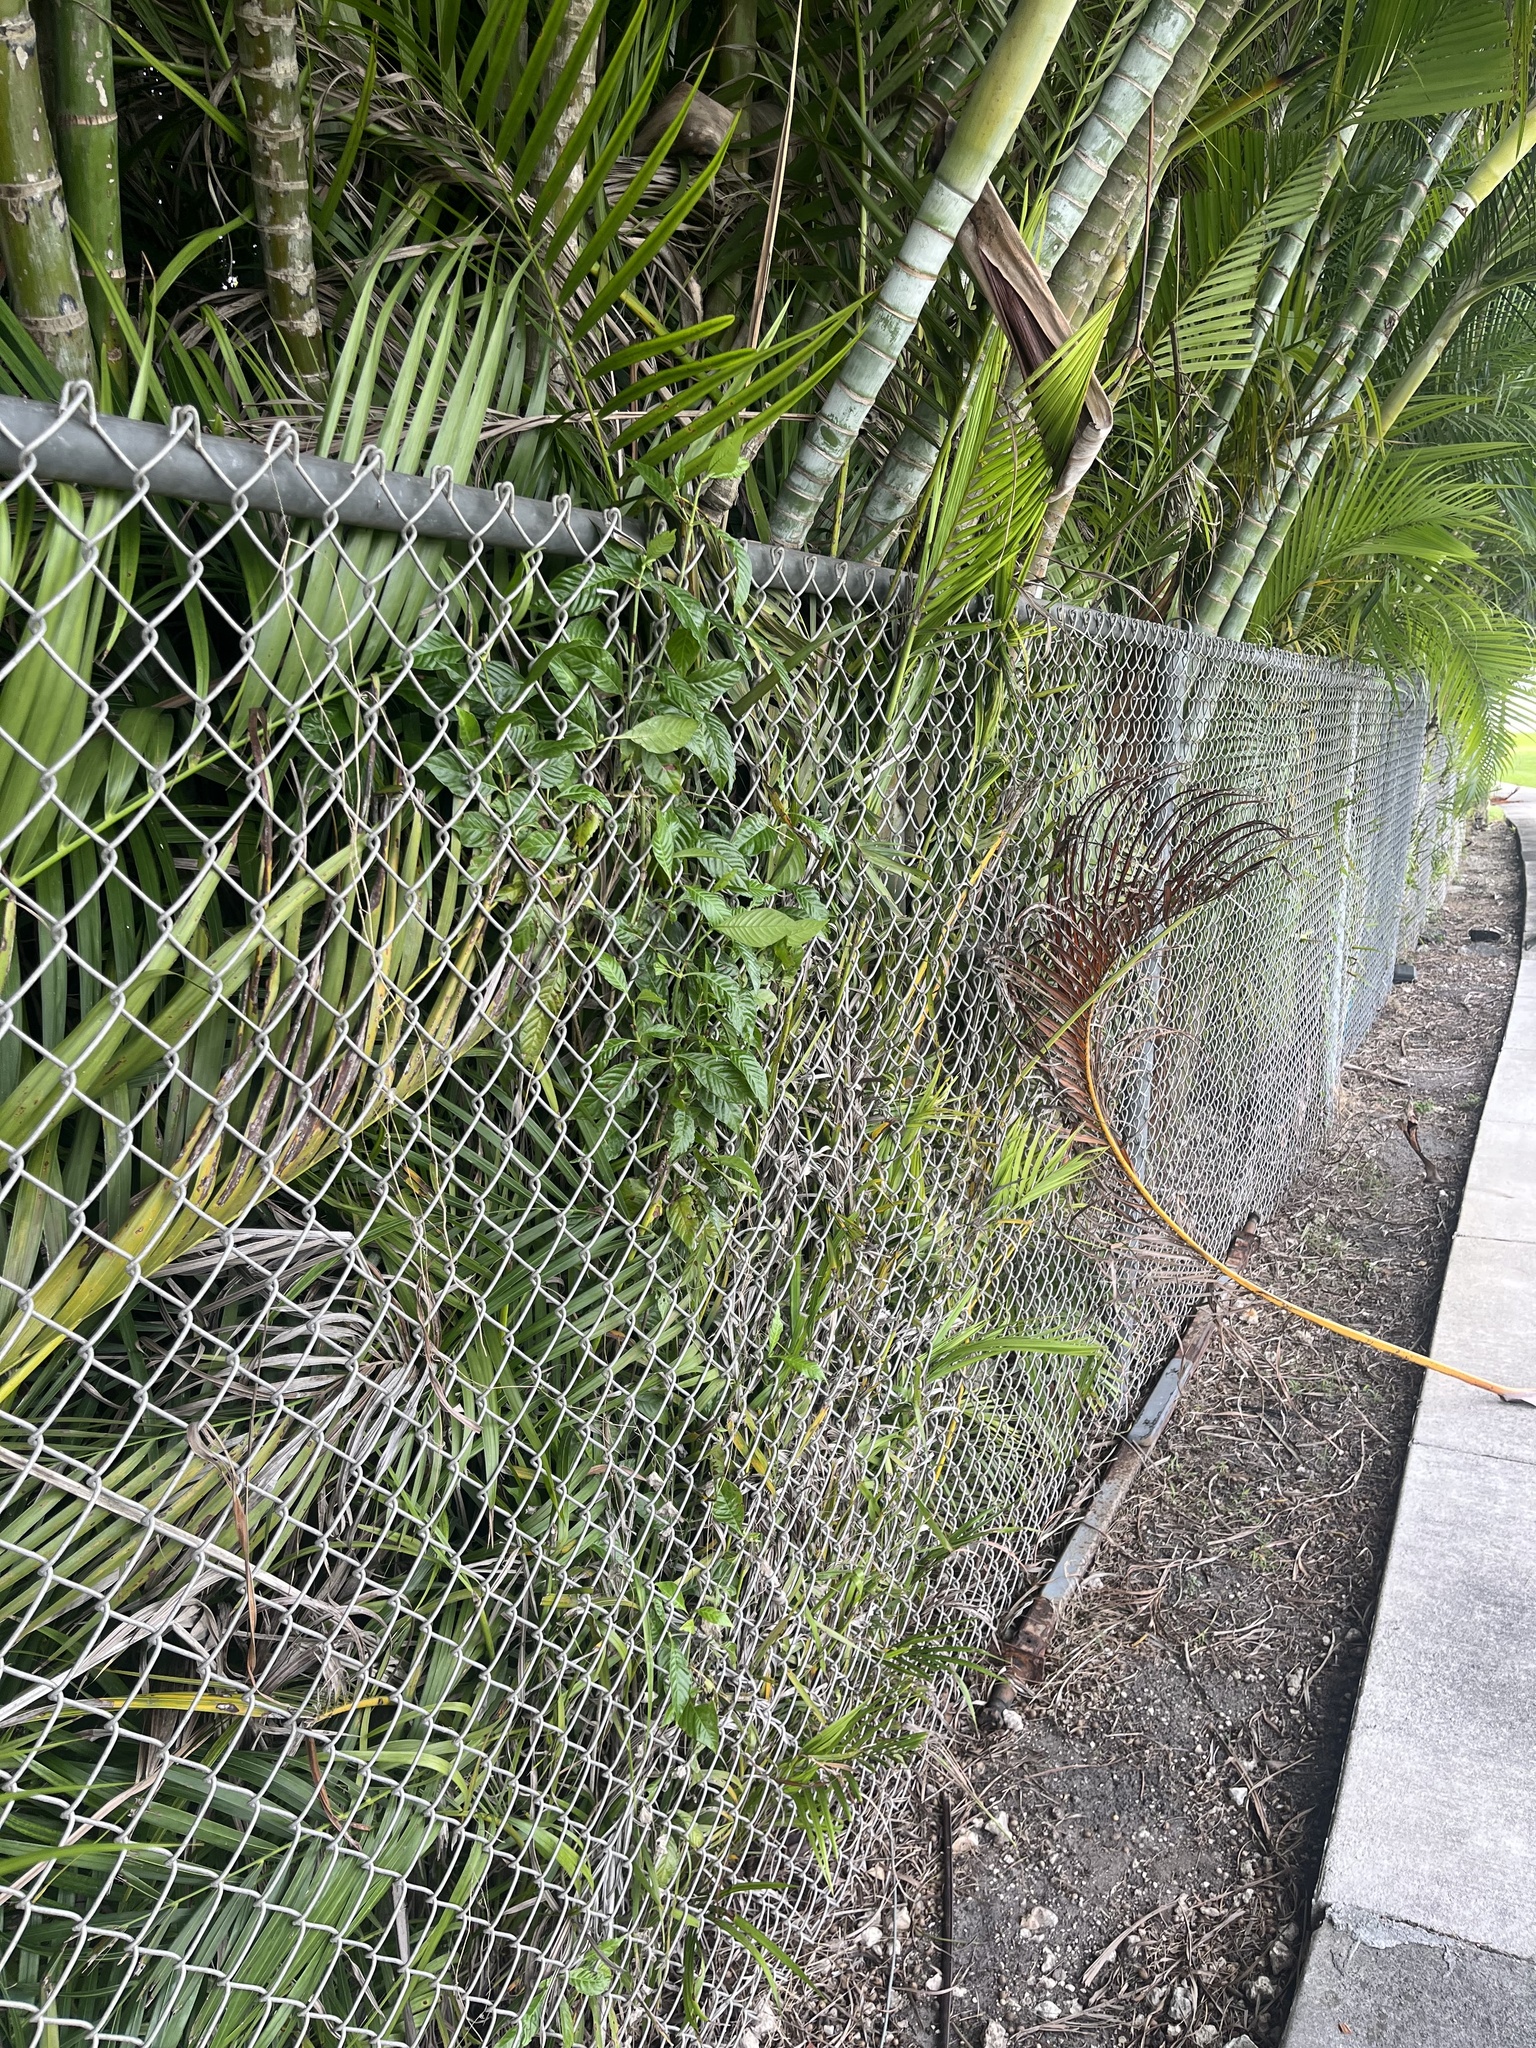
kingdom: Plantae
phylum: Tracheophyta
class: Magnoliopsida
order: Gentianales
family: Rubiaceae
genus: Psychotria
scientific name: Psychotria nervosa
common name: Bastard cankerberry
